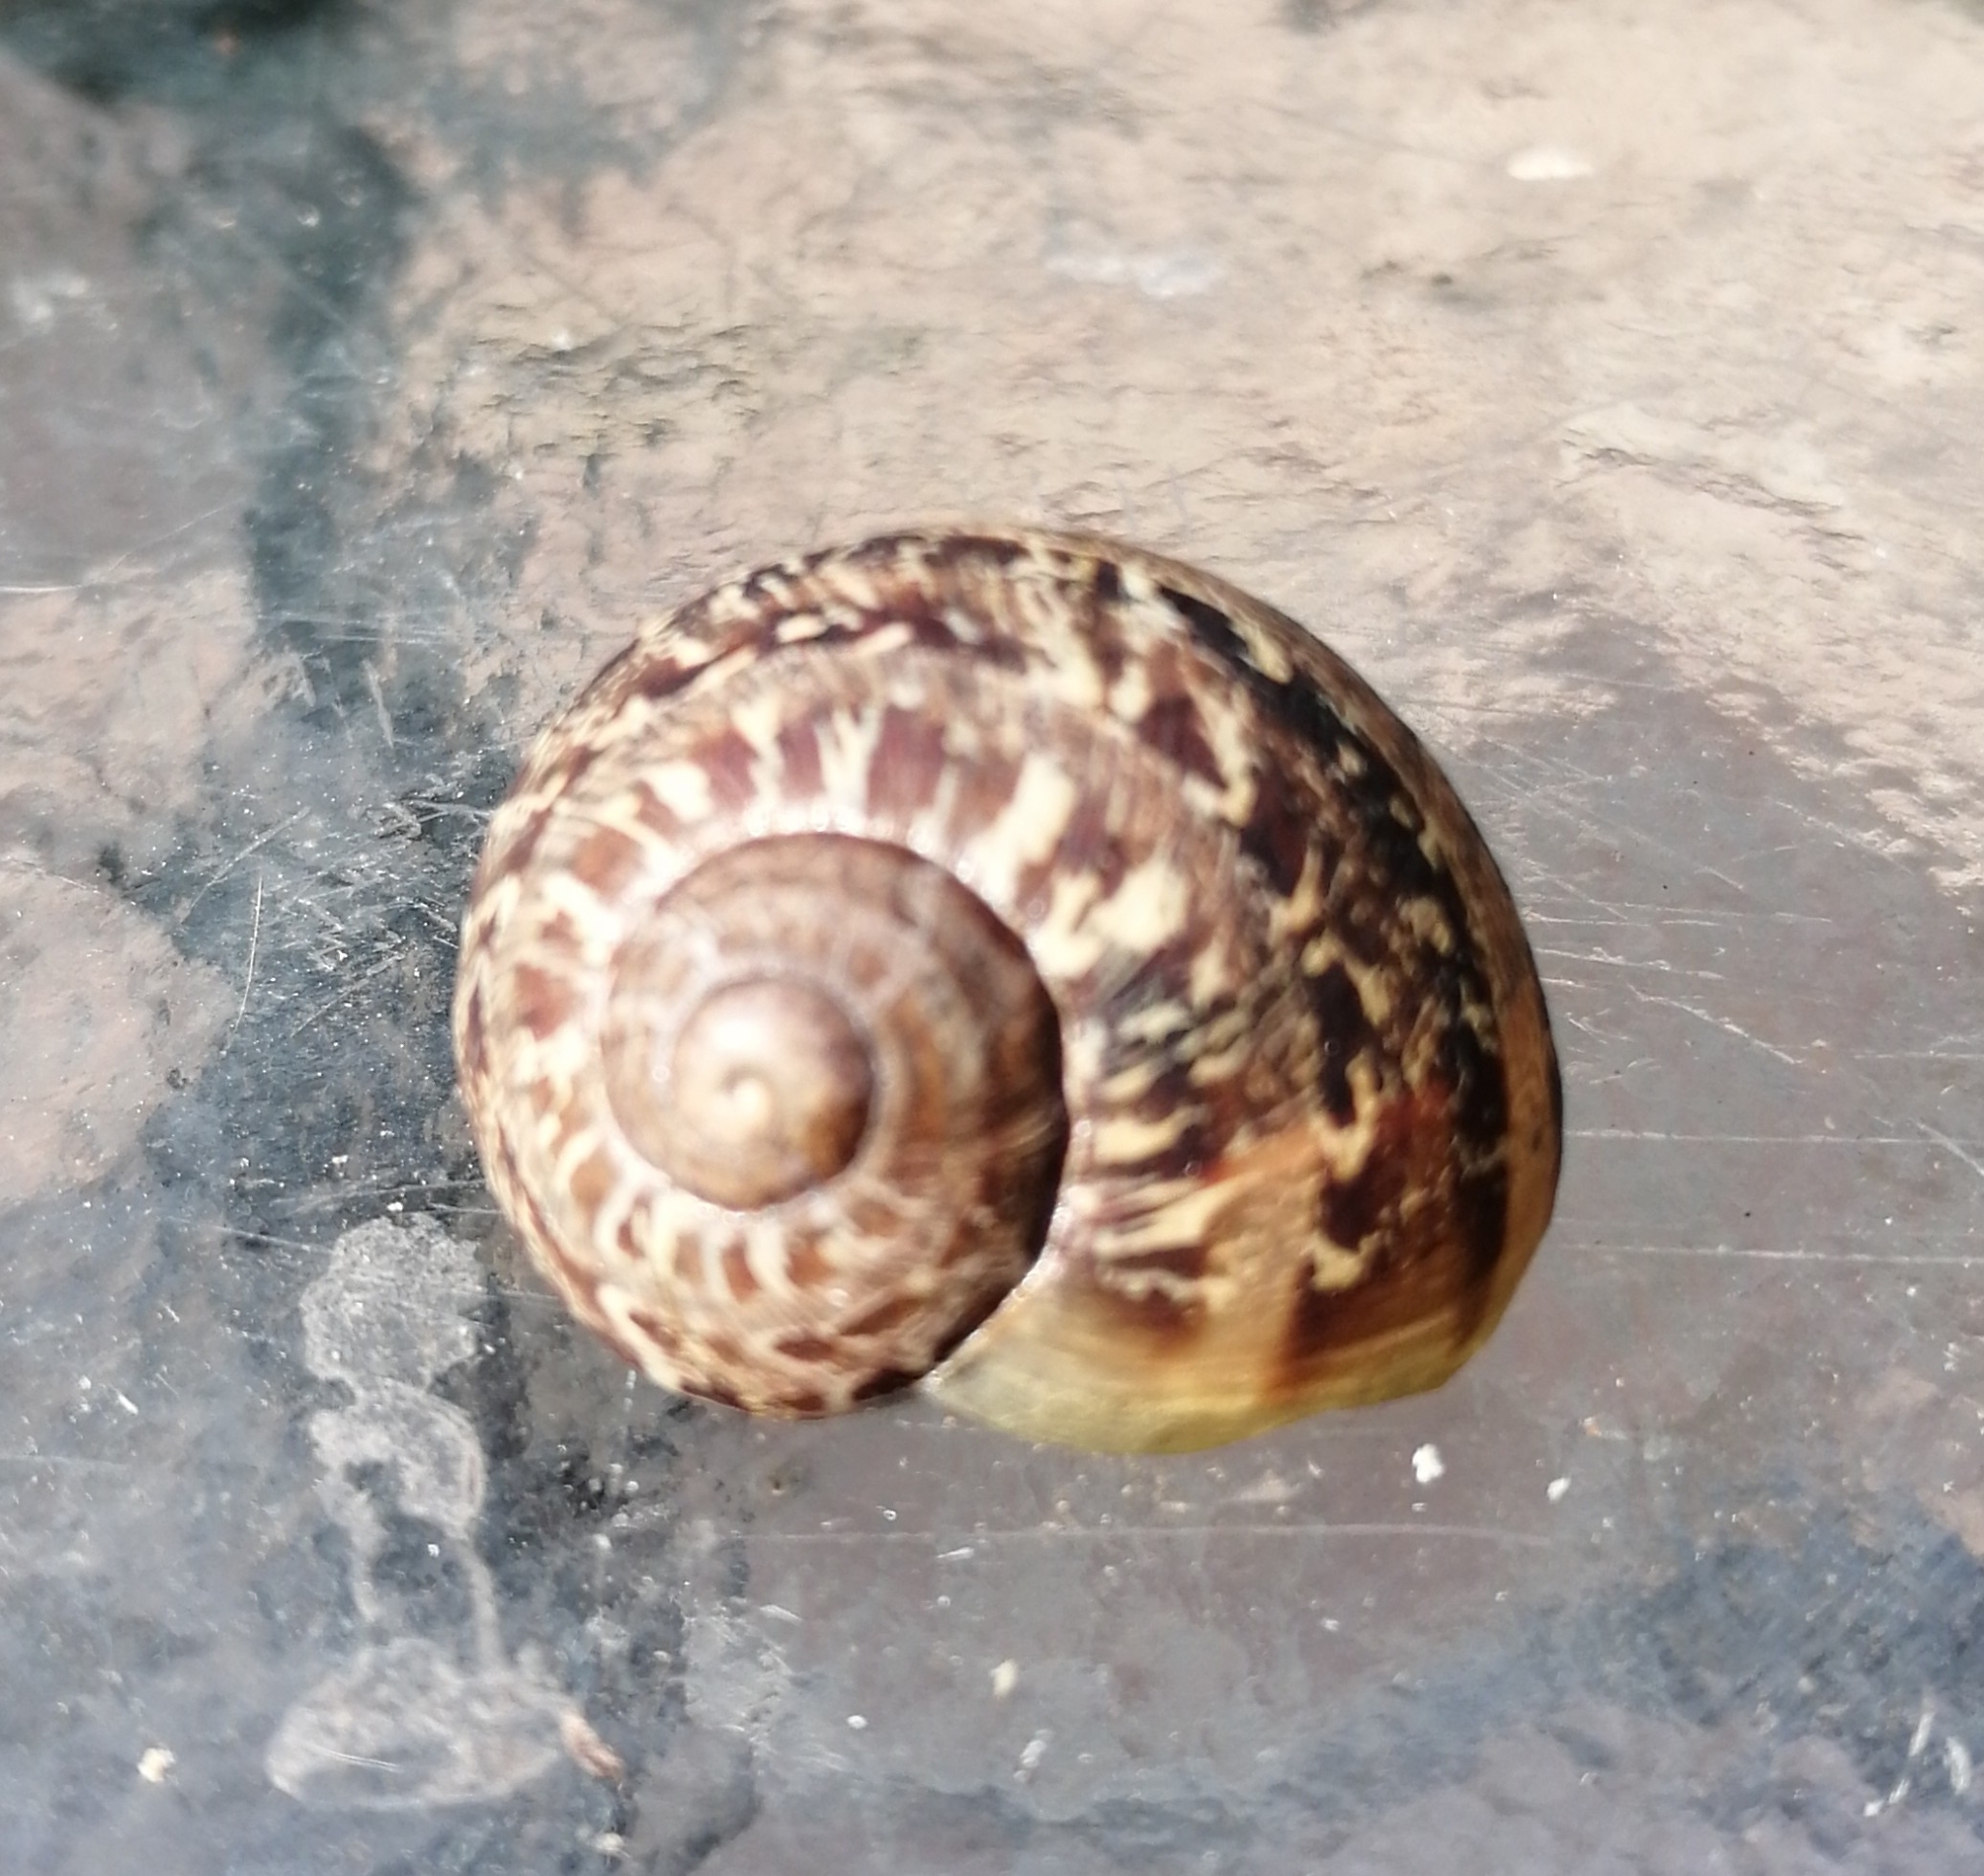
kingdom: Animalia
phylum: Mollusca
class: Gastropoda
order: Stylommatophora
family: Helicidae
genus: Cornu
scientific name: Cornu aspersum
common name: Brown garden snail
